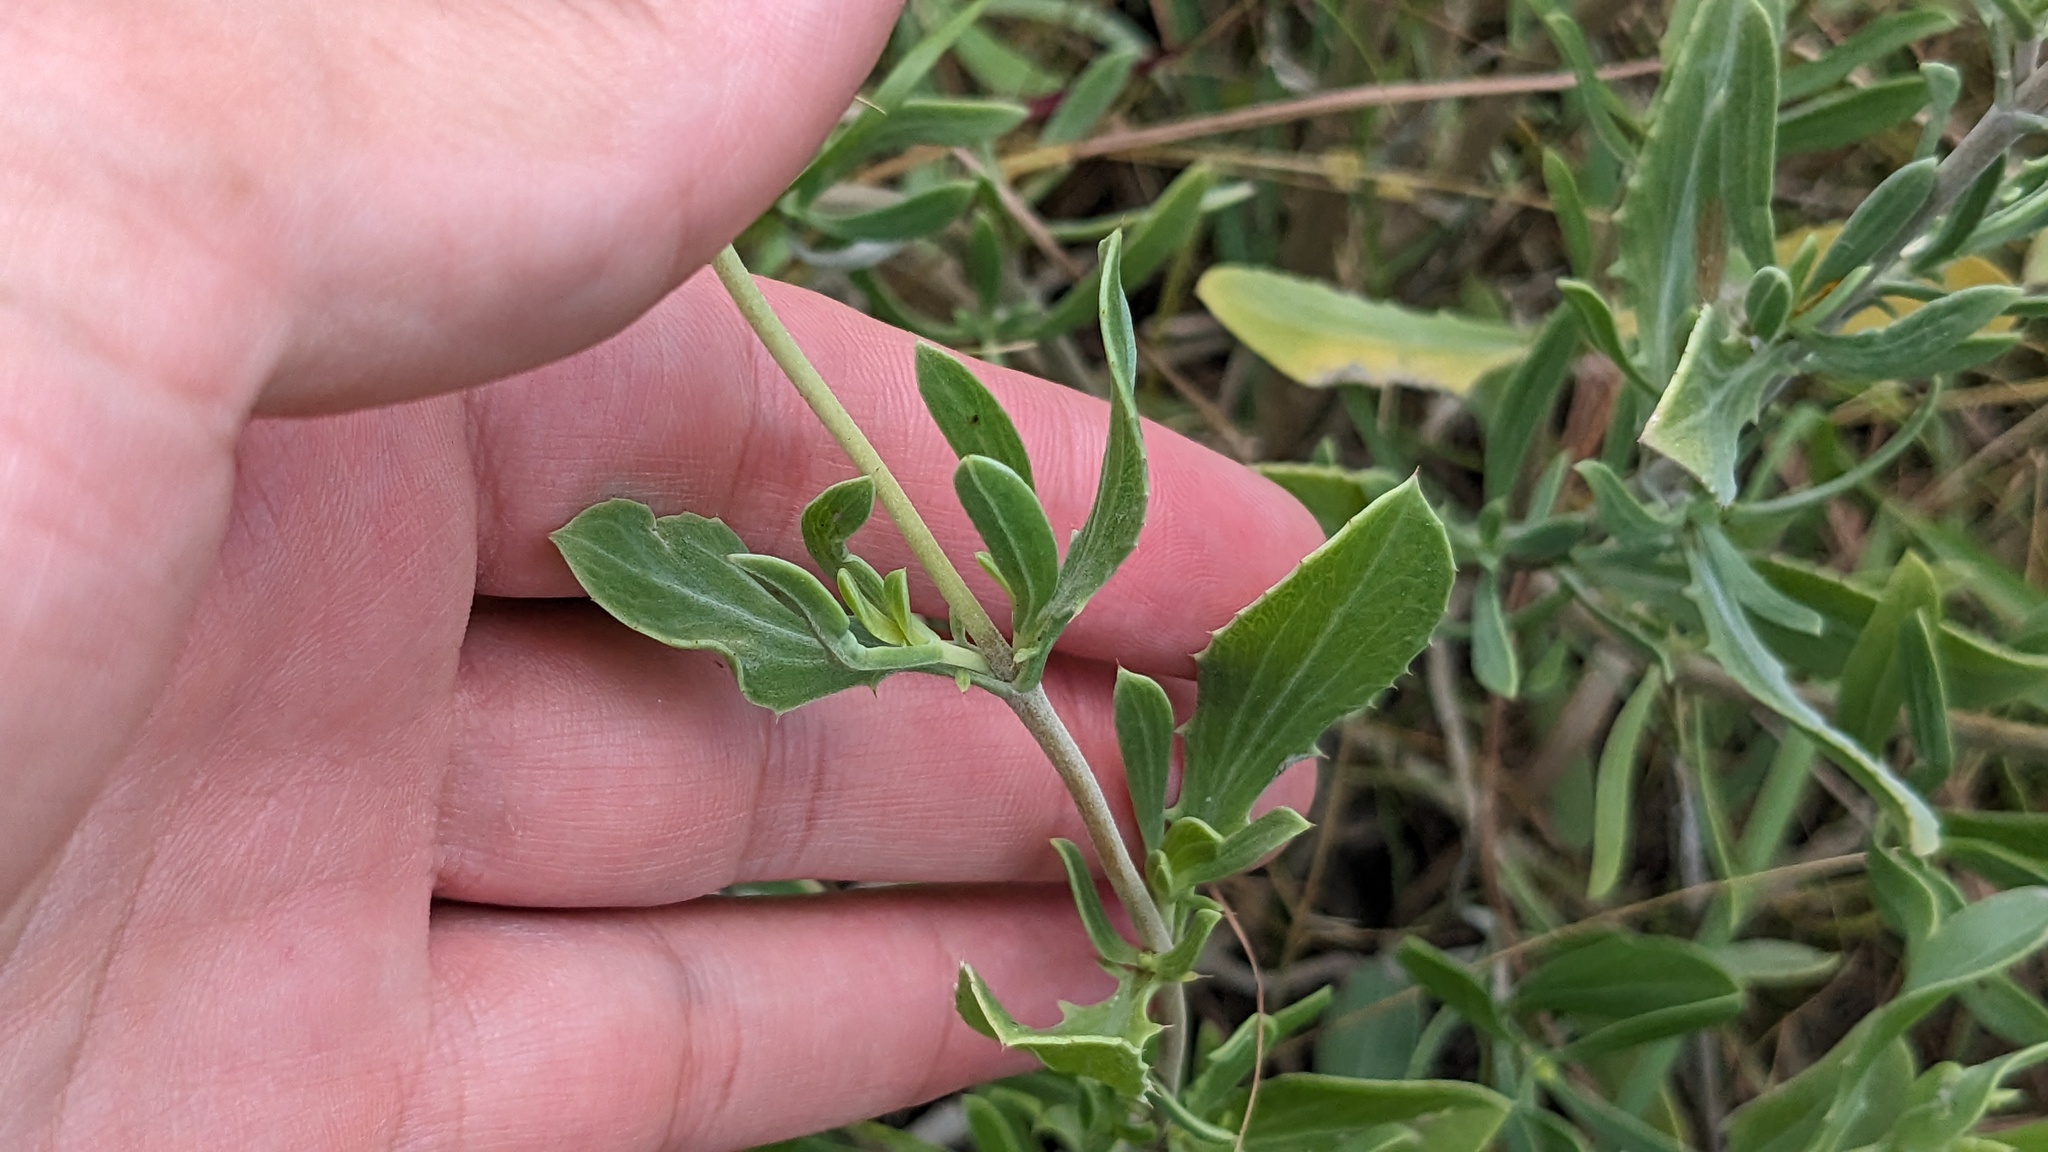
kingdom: Plantae
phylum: Tracheophyta
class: Magnoliopsida
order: Asterales
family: Asteraceae
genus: Borrichia
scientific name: Borrichia frutescens
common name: Sea oxeye
